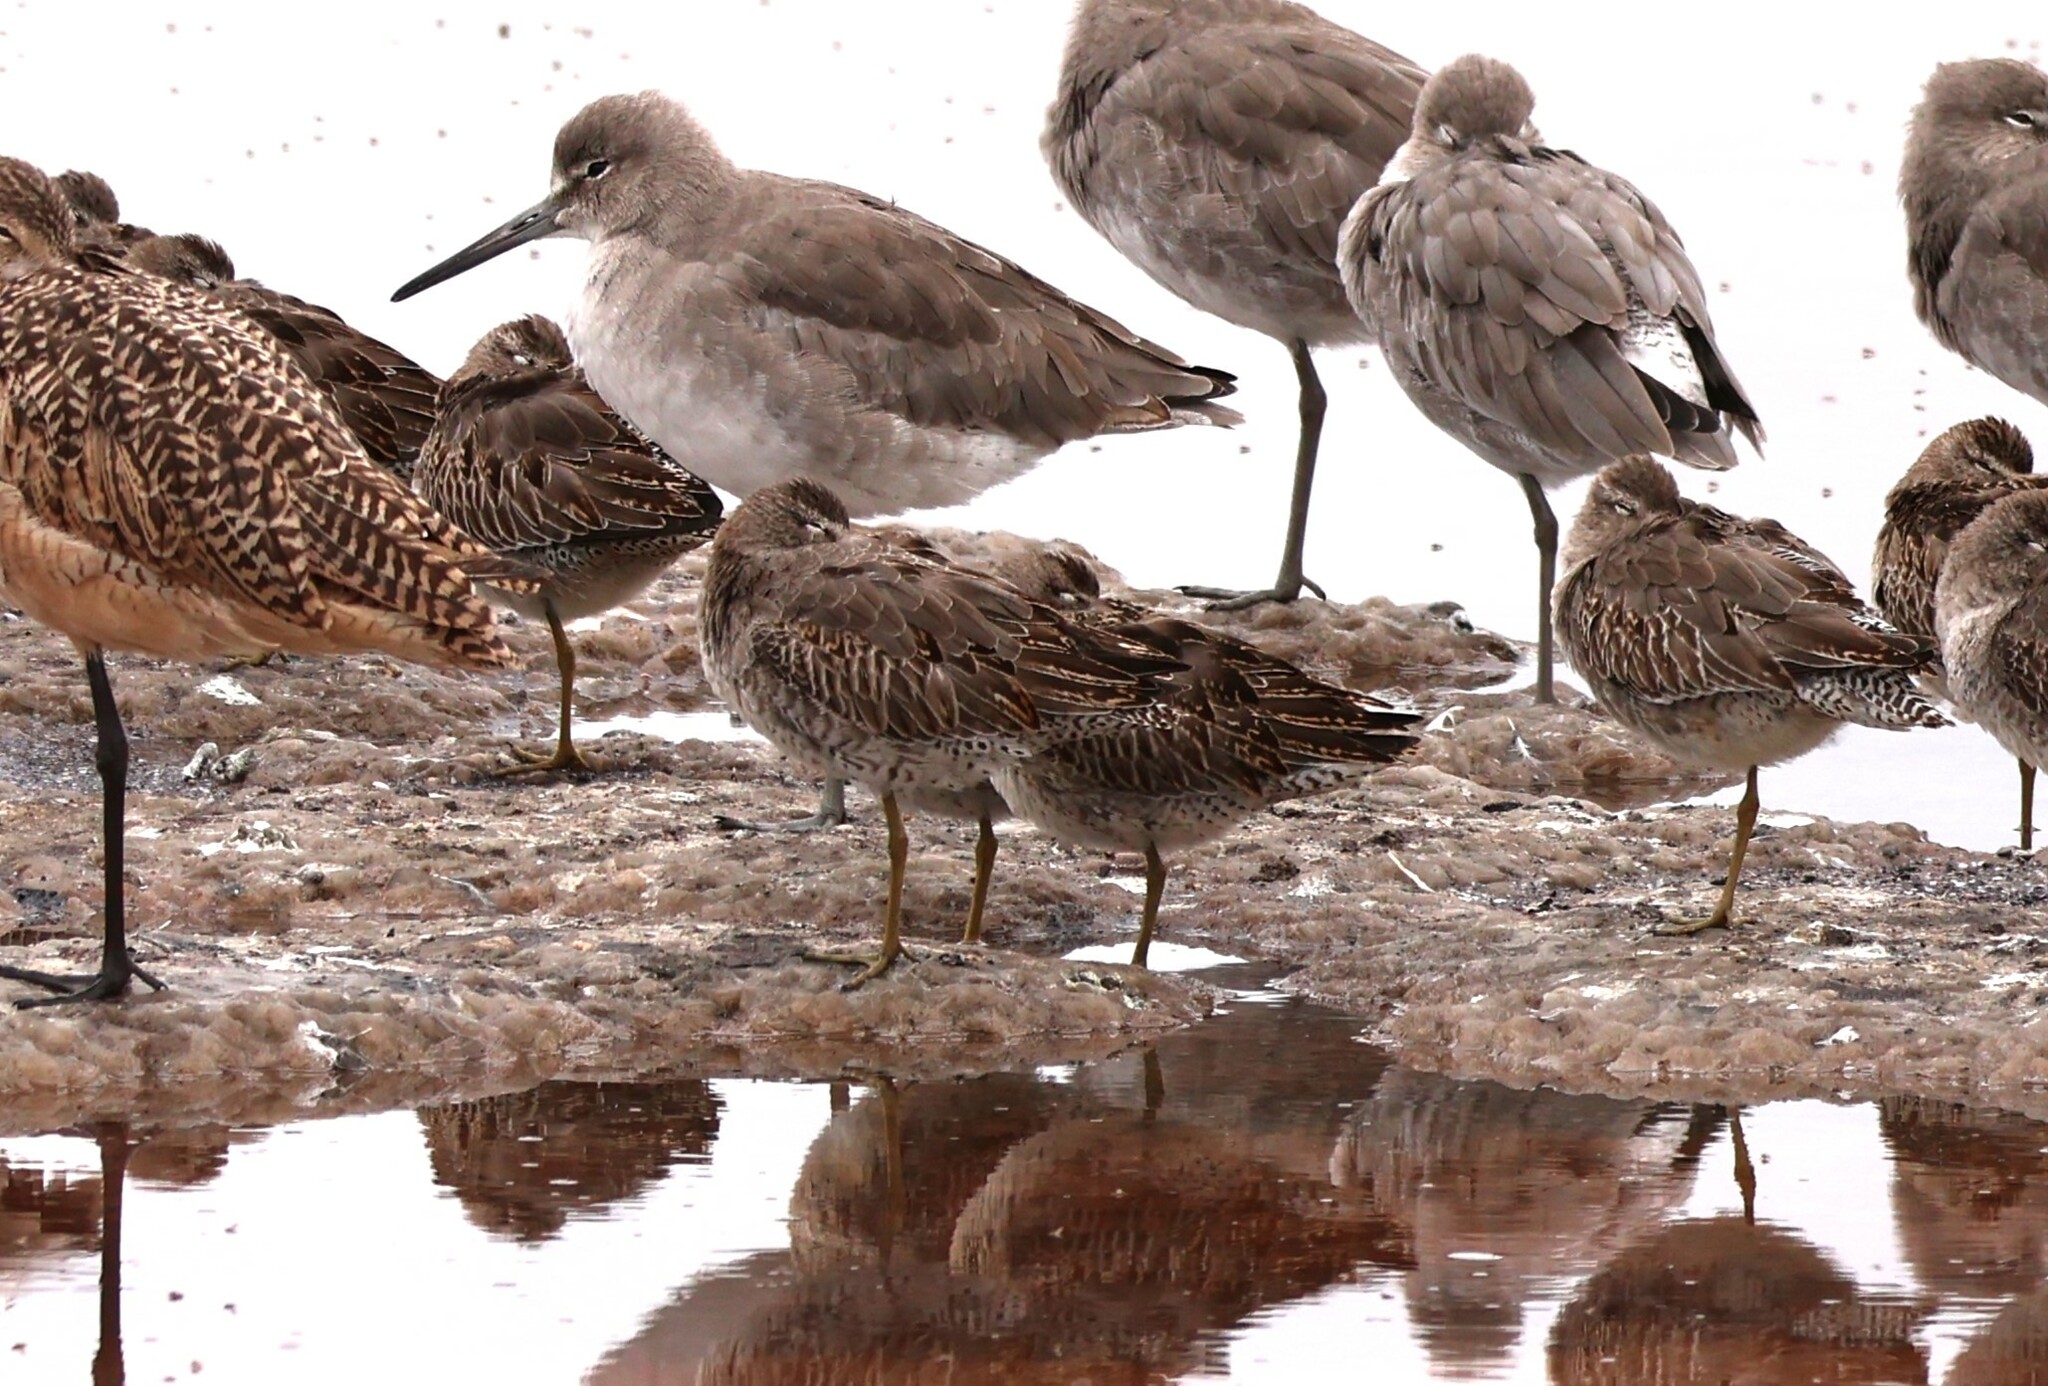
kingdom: Animalia
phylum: Chordata
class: Aves
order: Charadriiformes
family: Scolopacidae
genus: Limnodromus
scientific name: Limnodromus griseus
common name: Short-billed dowitcher
